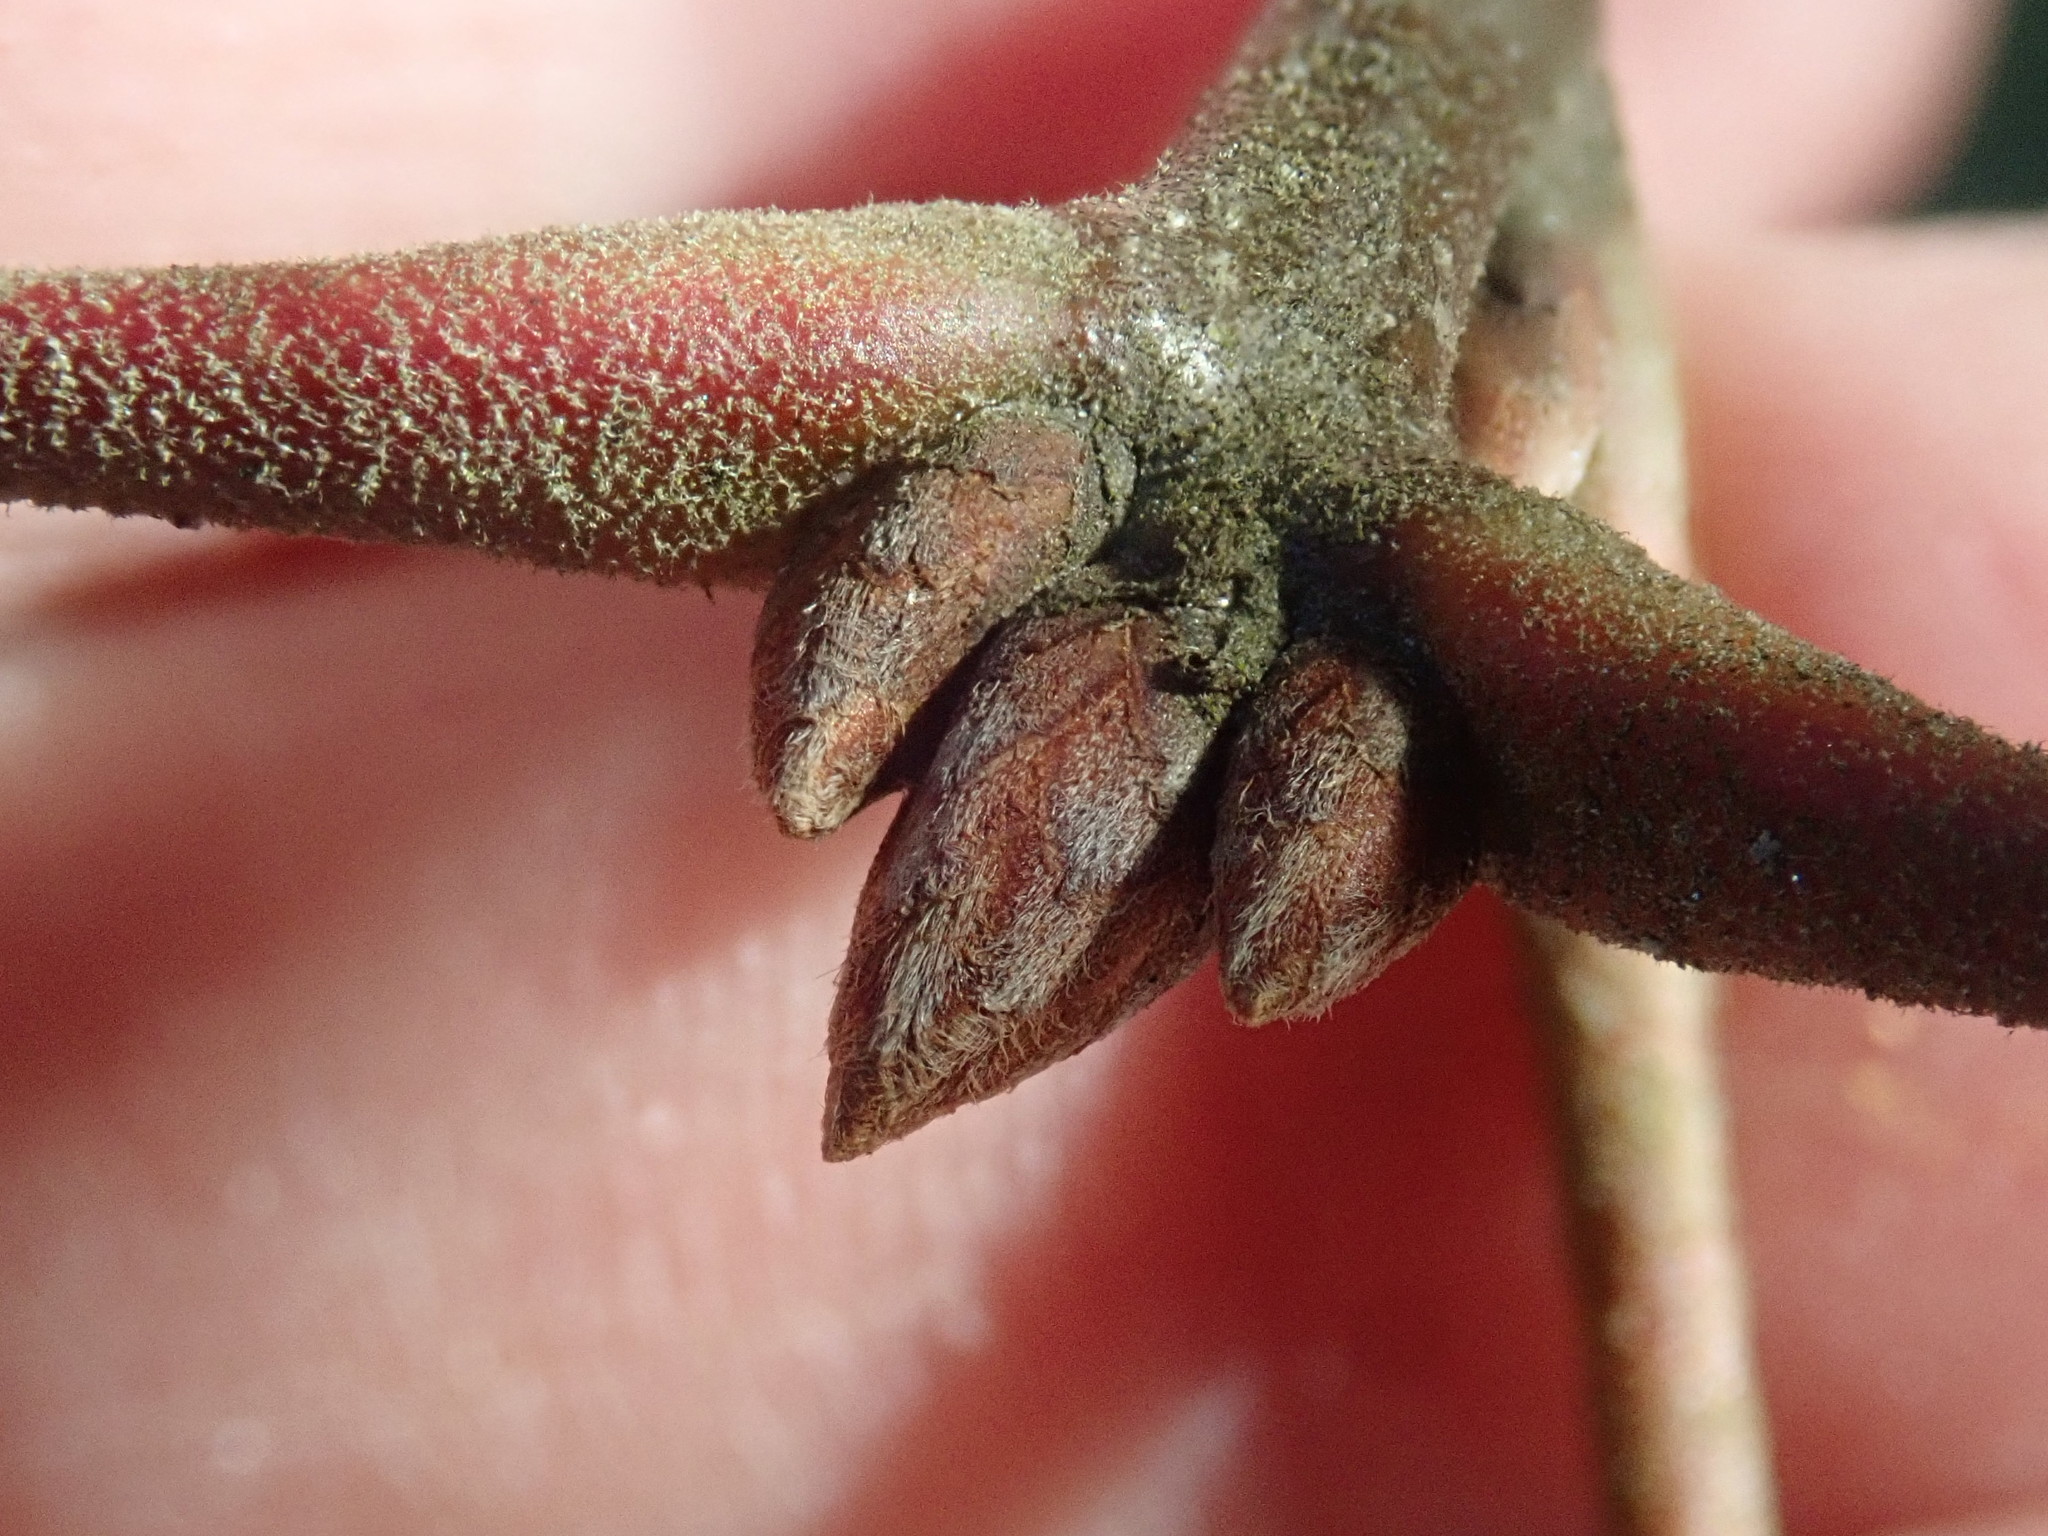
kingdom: Plantae
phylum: Tracheophyta
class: Magnoliopsida
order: Fagales
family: Fagaceae
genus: Quercus
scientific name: Quercus velutina
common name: Black oak
